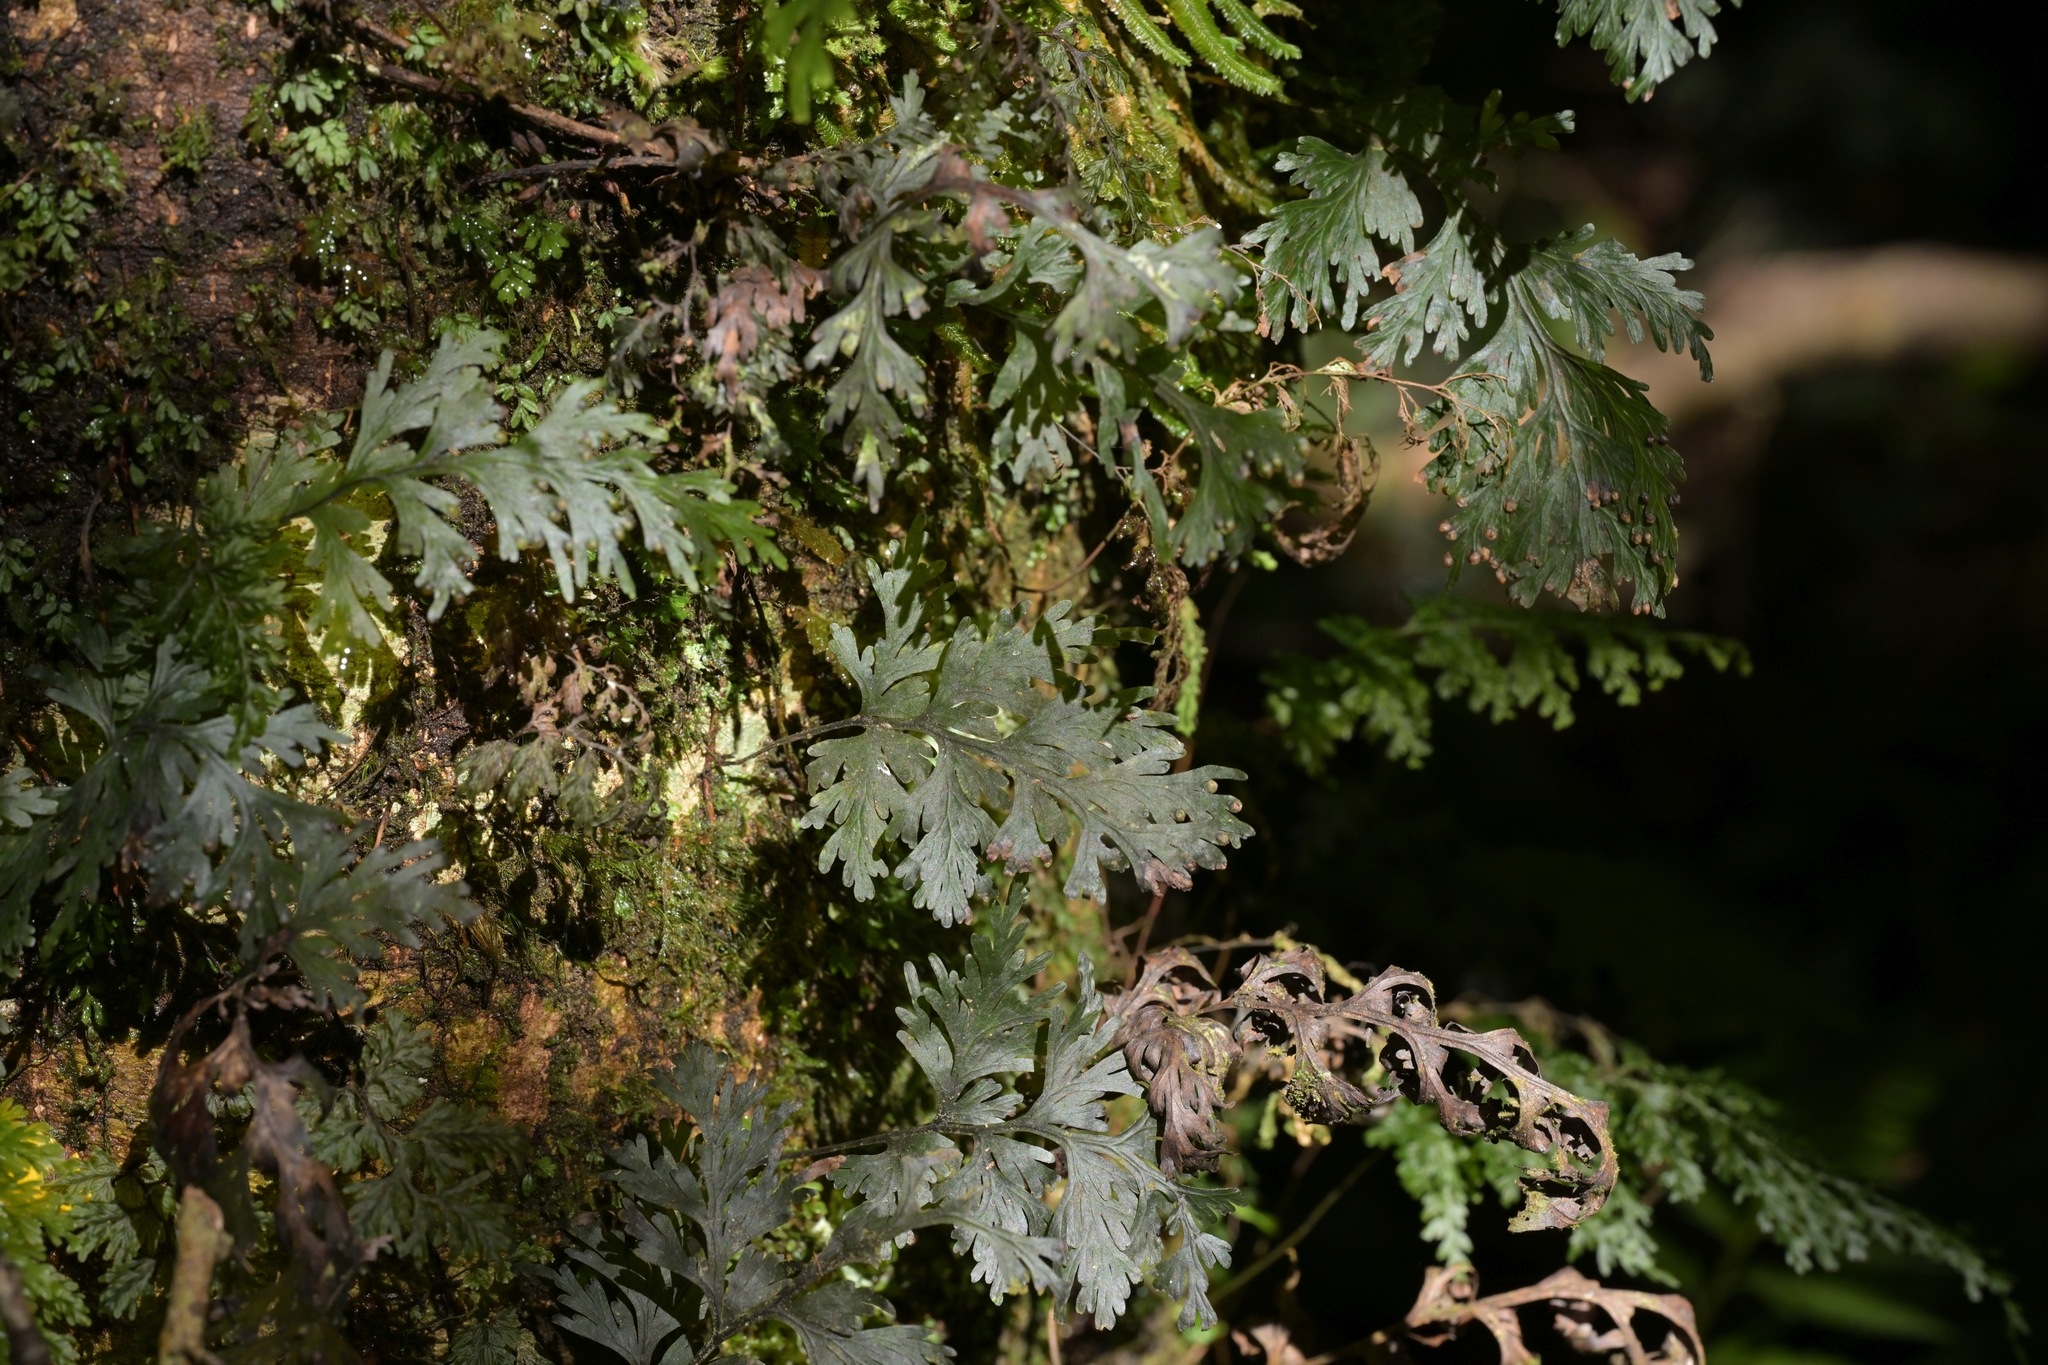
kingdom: Plantae
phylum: Tracheophyta
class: Polypodiopsida
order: Hymenophyllales
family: Hymenophyllaceae
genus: Hymenophyllum
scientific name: Hymenophyllum dilatatum
